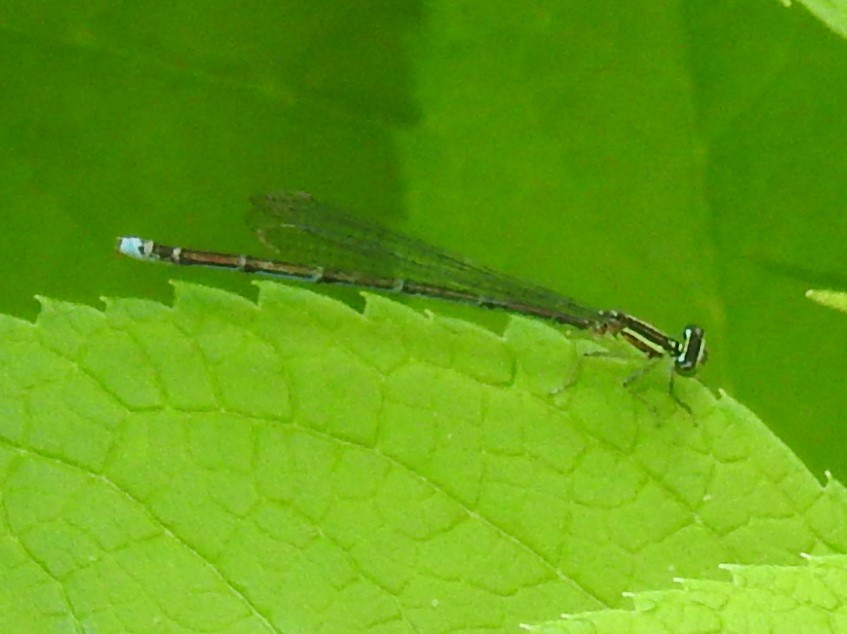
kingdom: Animalia
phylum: Arthropoda
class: Insecta
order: Odonata
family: Coenagrionidae
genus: Enallagma
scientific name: Enallagma exsulans
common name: Stream bluet
